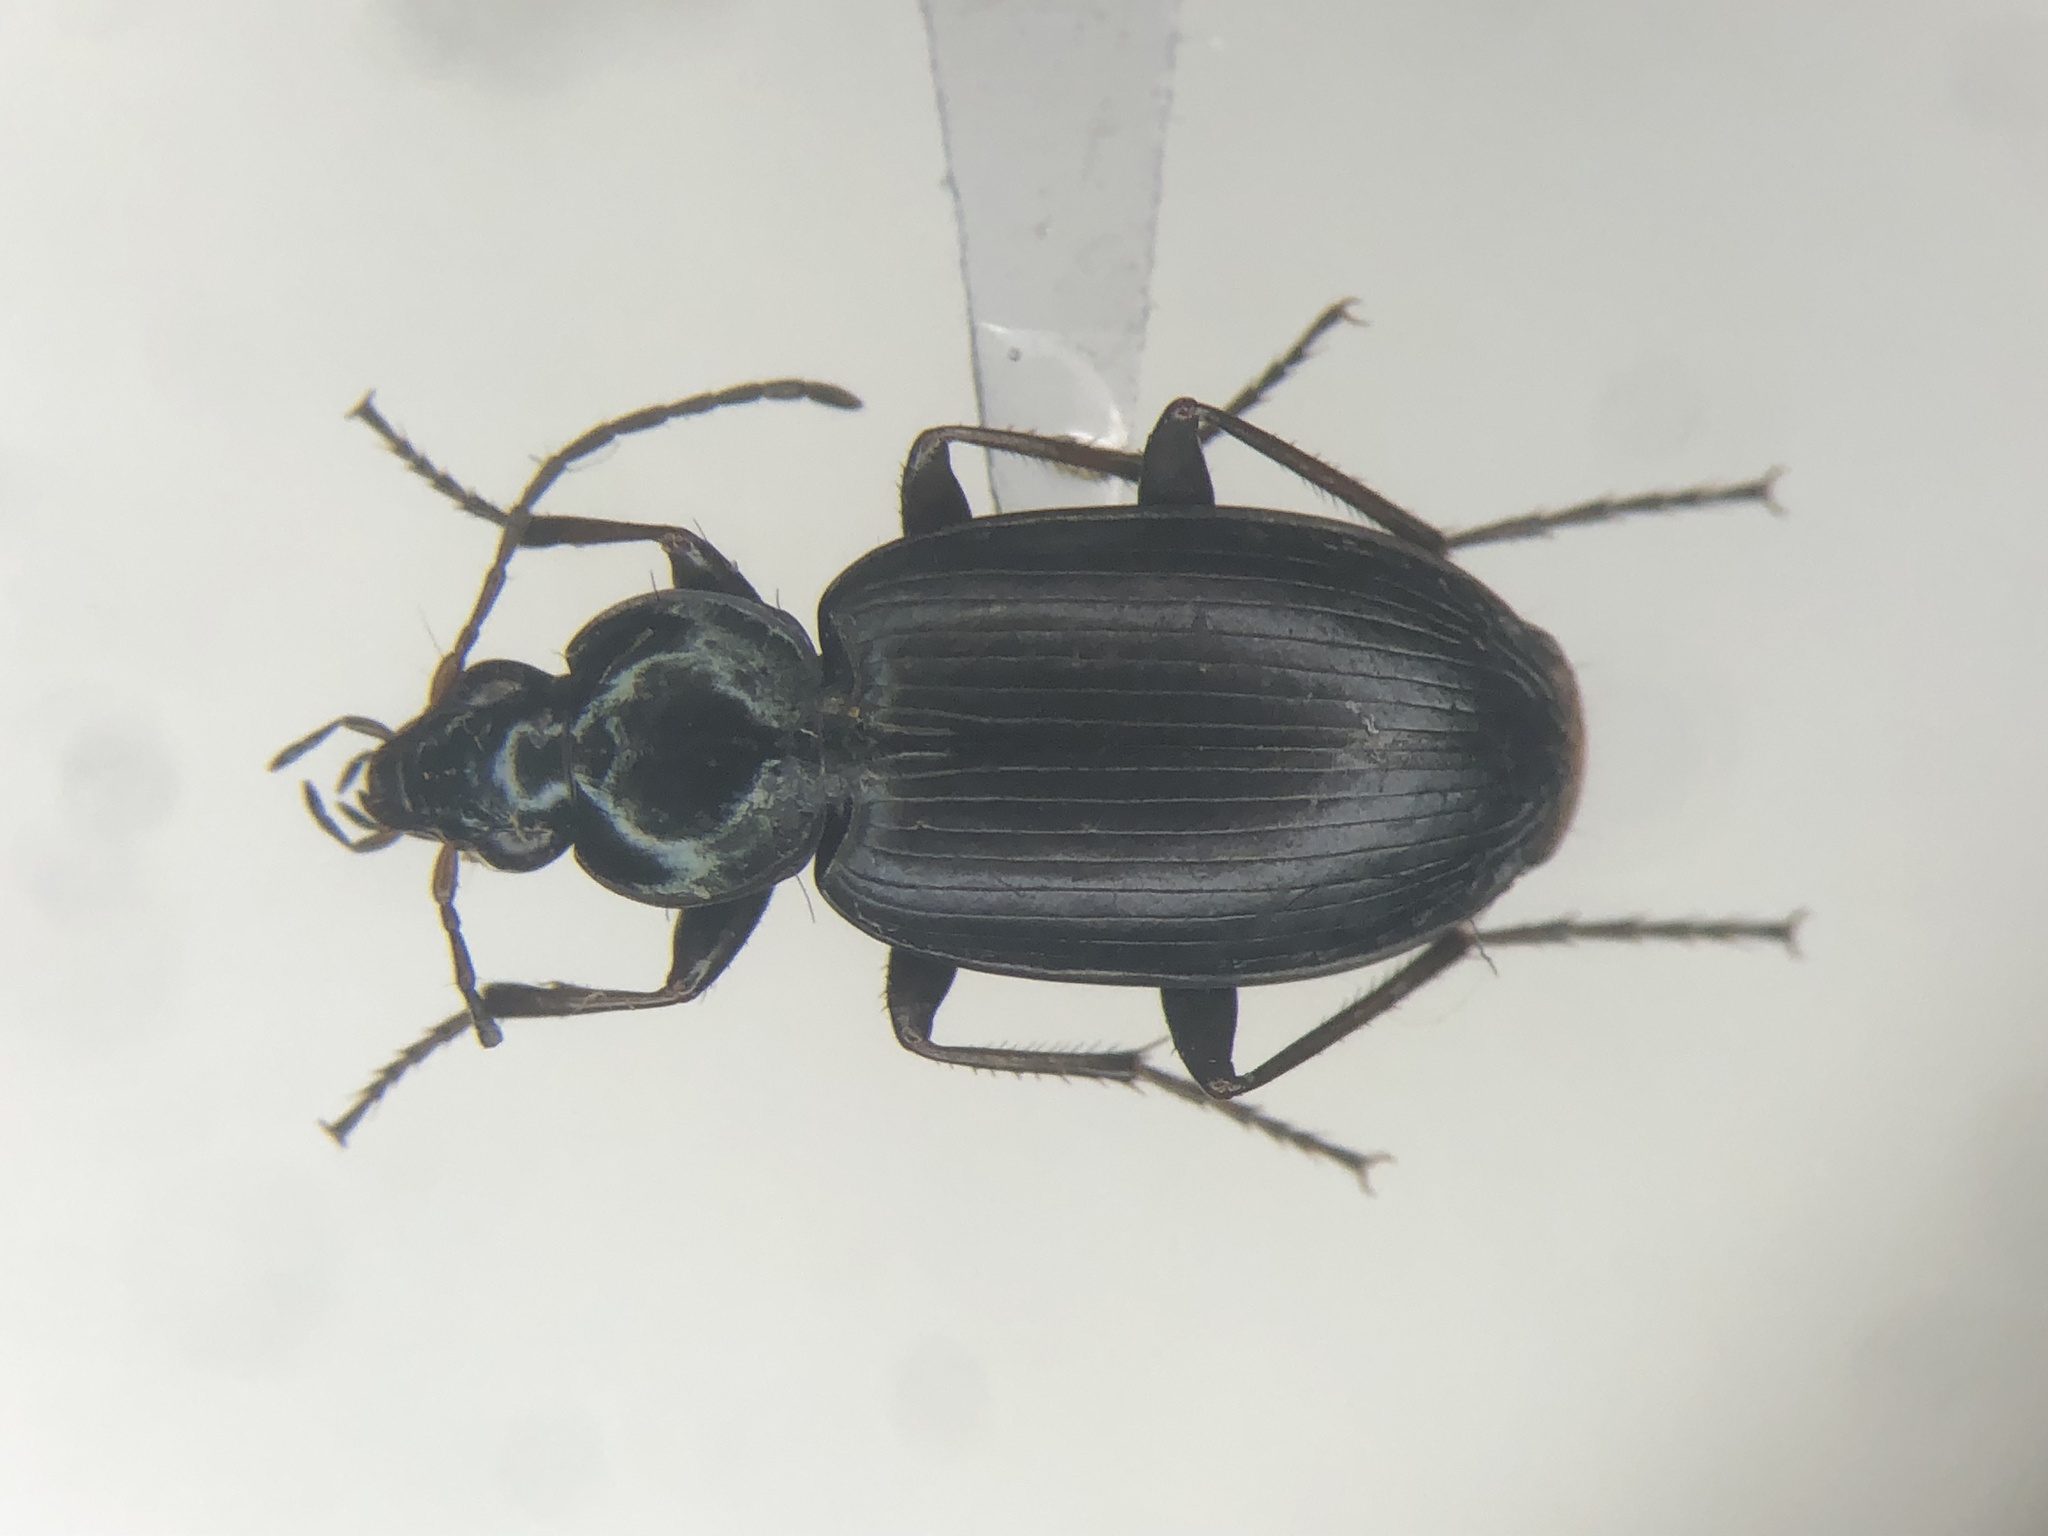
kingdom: Animalia
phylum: Arthropoda
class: Insecta
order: Coleoptera
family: Carabidae
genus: Agonum
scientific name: Agonum placidum
